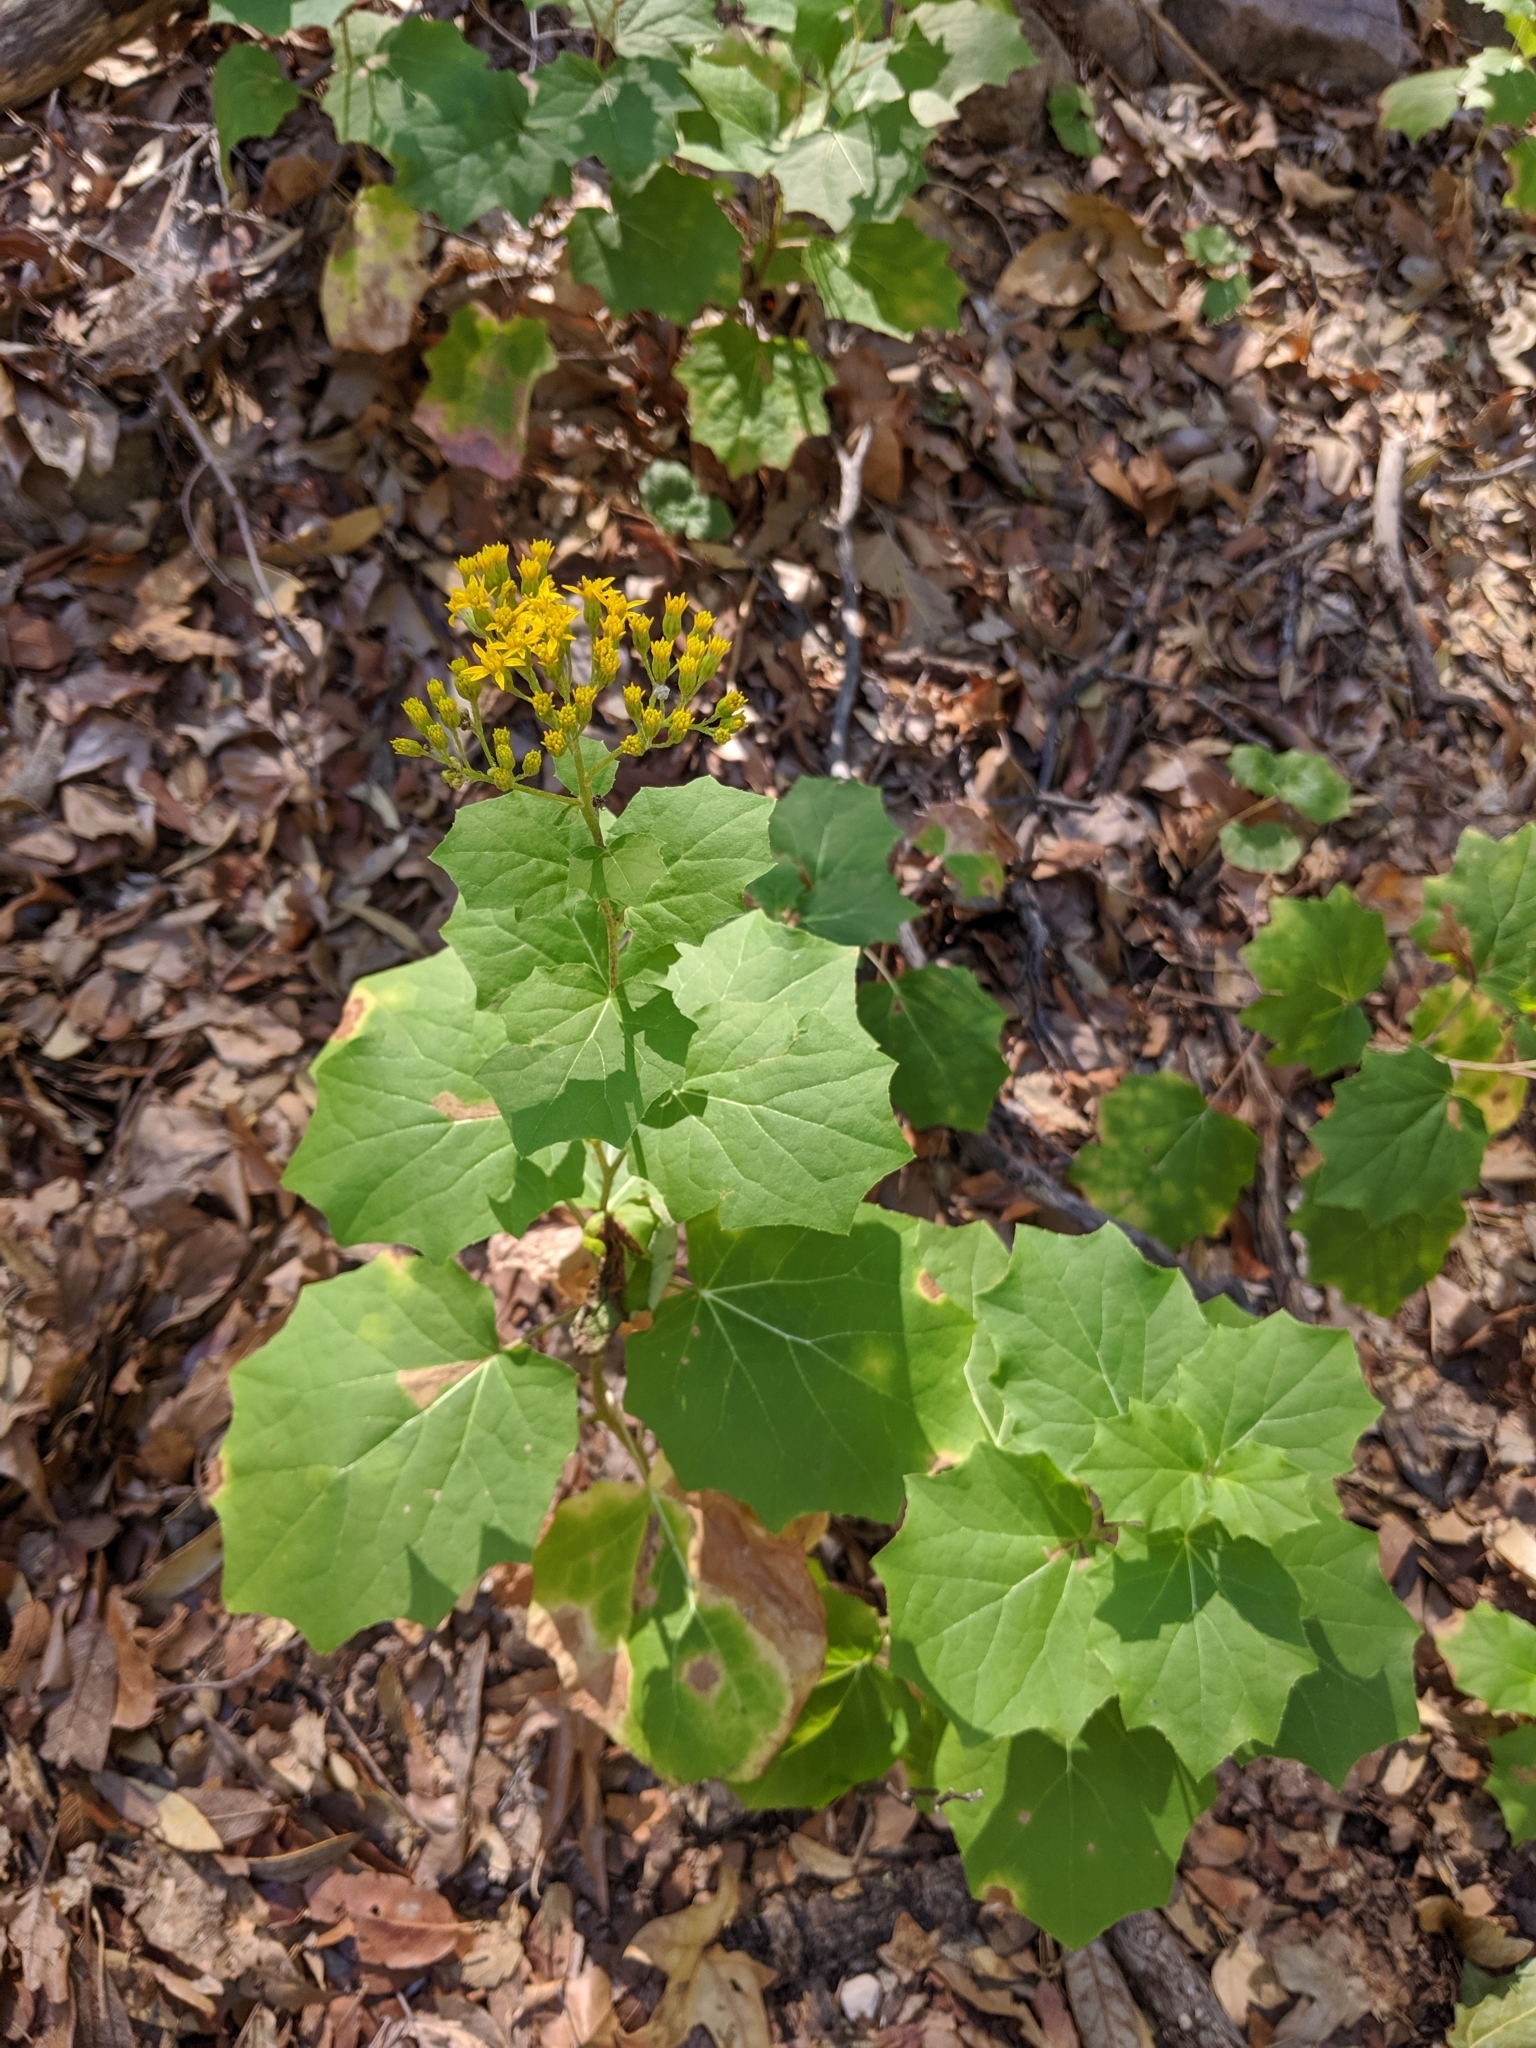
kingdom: Plantae
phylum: Tracheophyta
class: Magnoliopsida
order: Asterales
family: Asteraceae
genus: Roldana
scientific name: Roldana hartwegii
